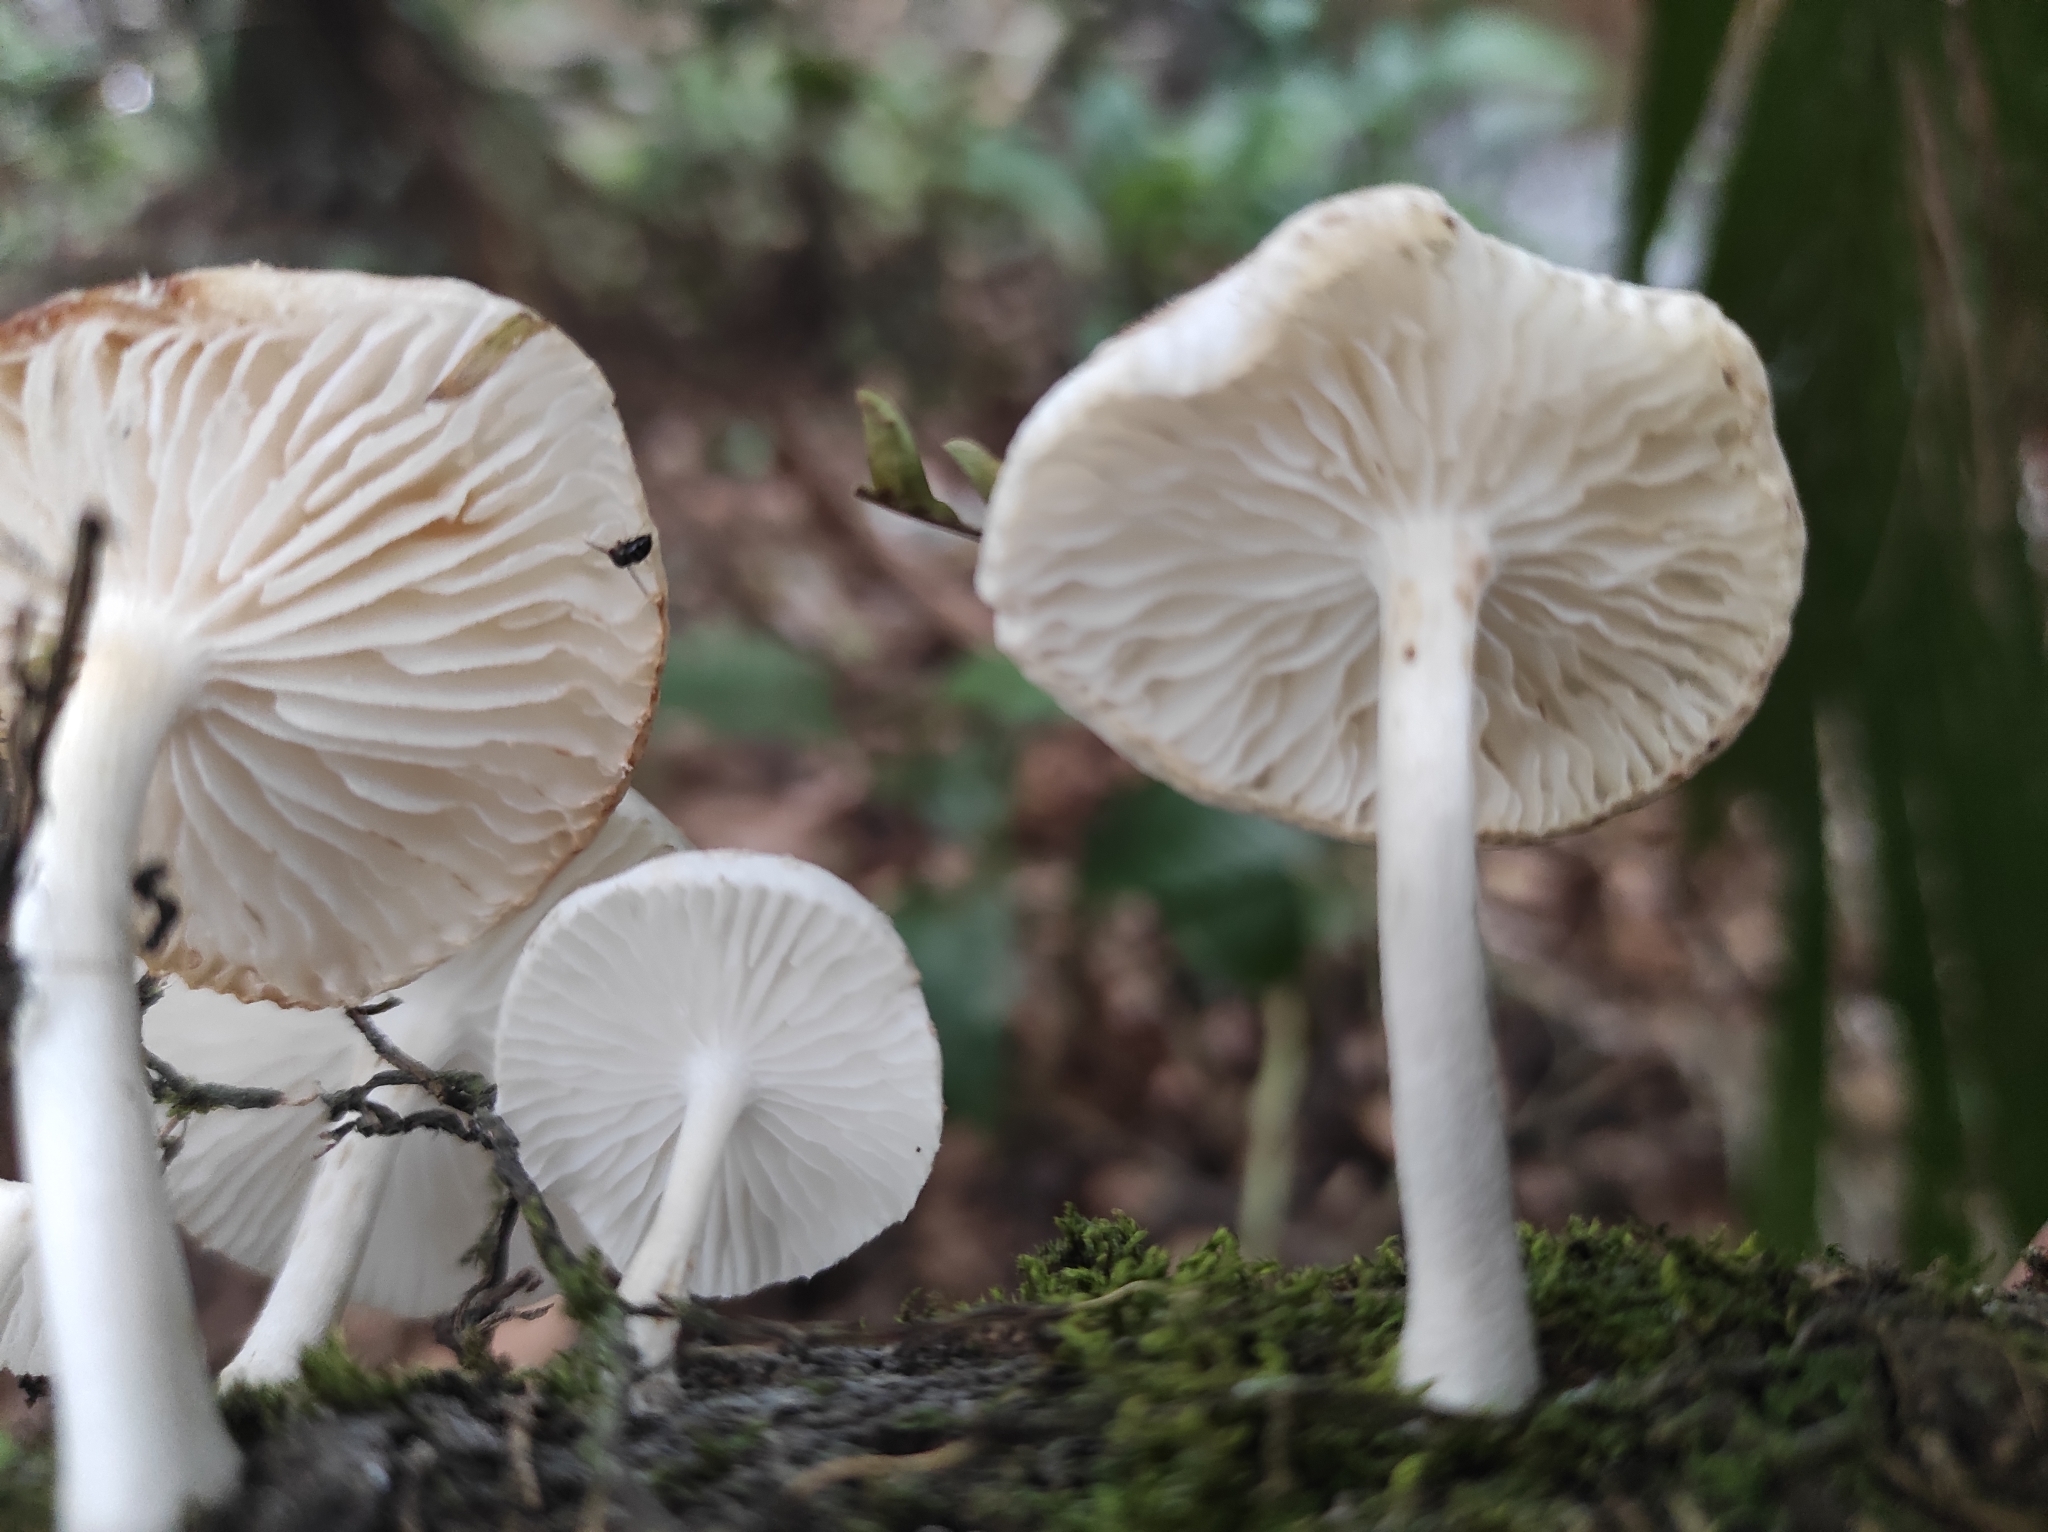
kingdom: Fungi
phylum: Basidiomycota
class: Agaricomycetes
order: Agaricales
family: Physalacriaceae
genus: Oudemansiella
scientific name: Oudemansiella canarii
